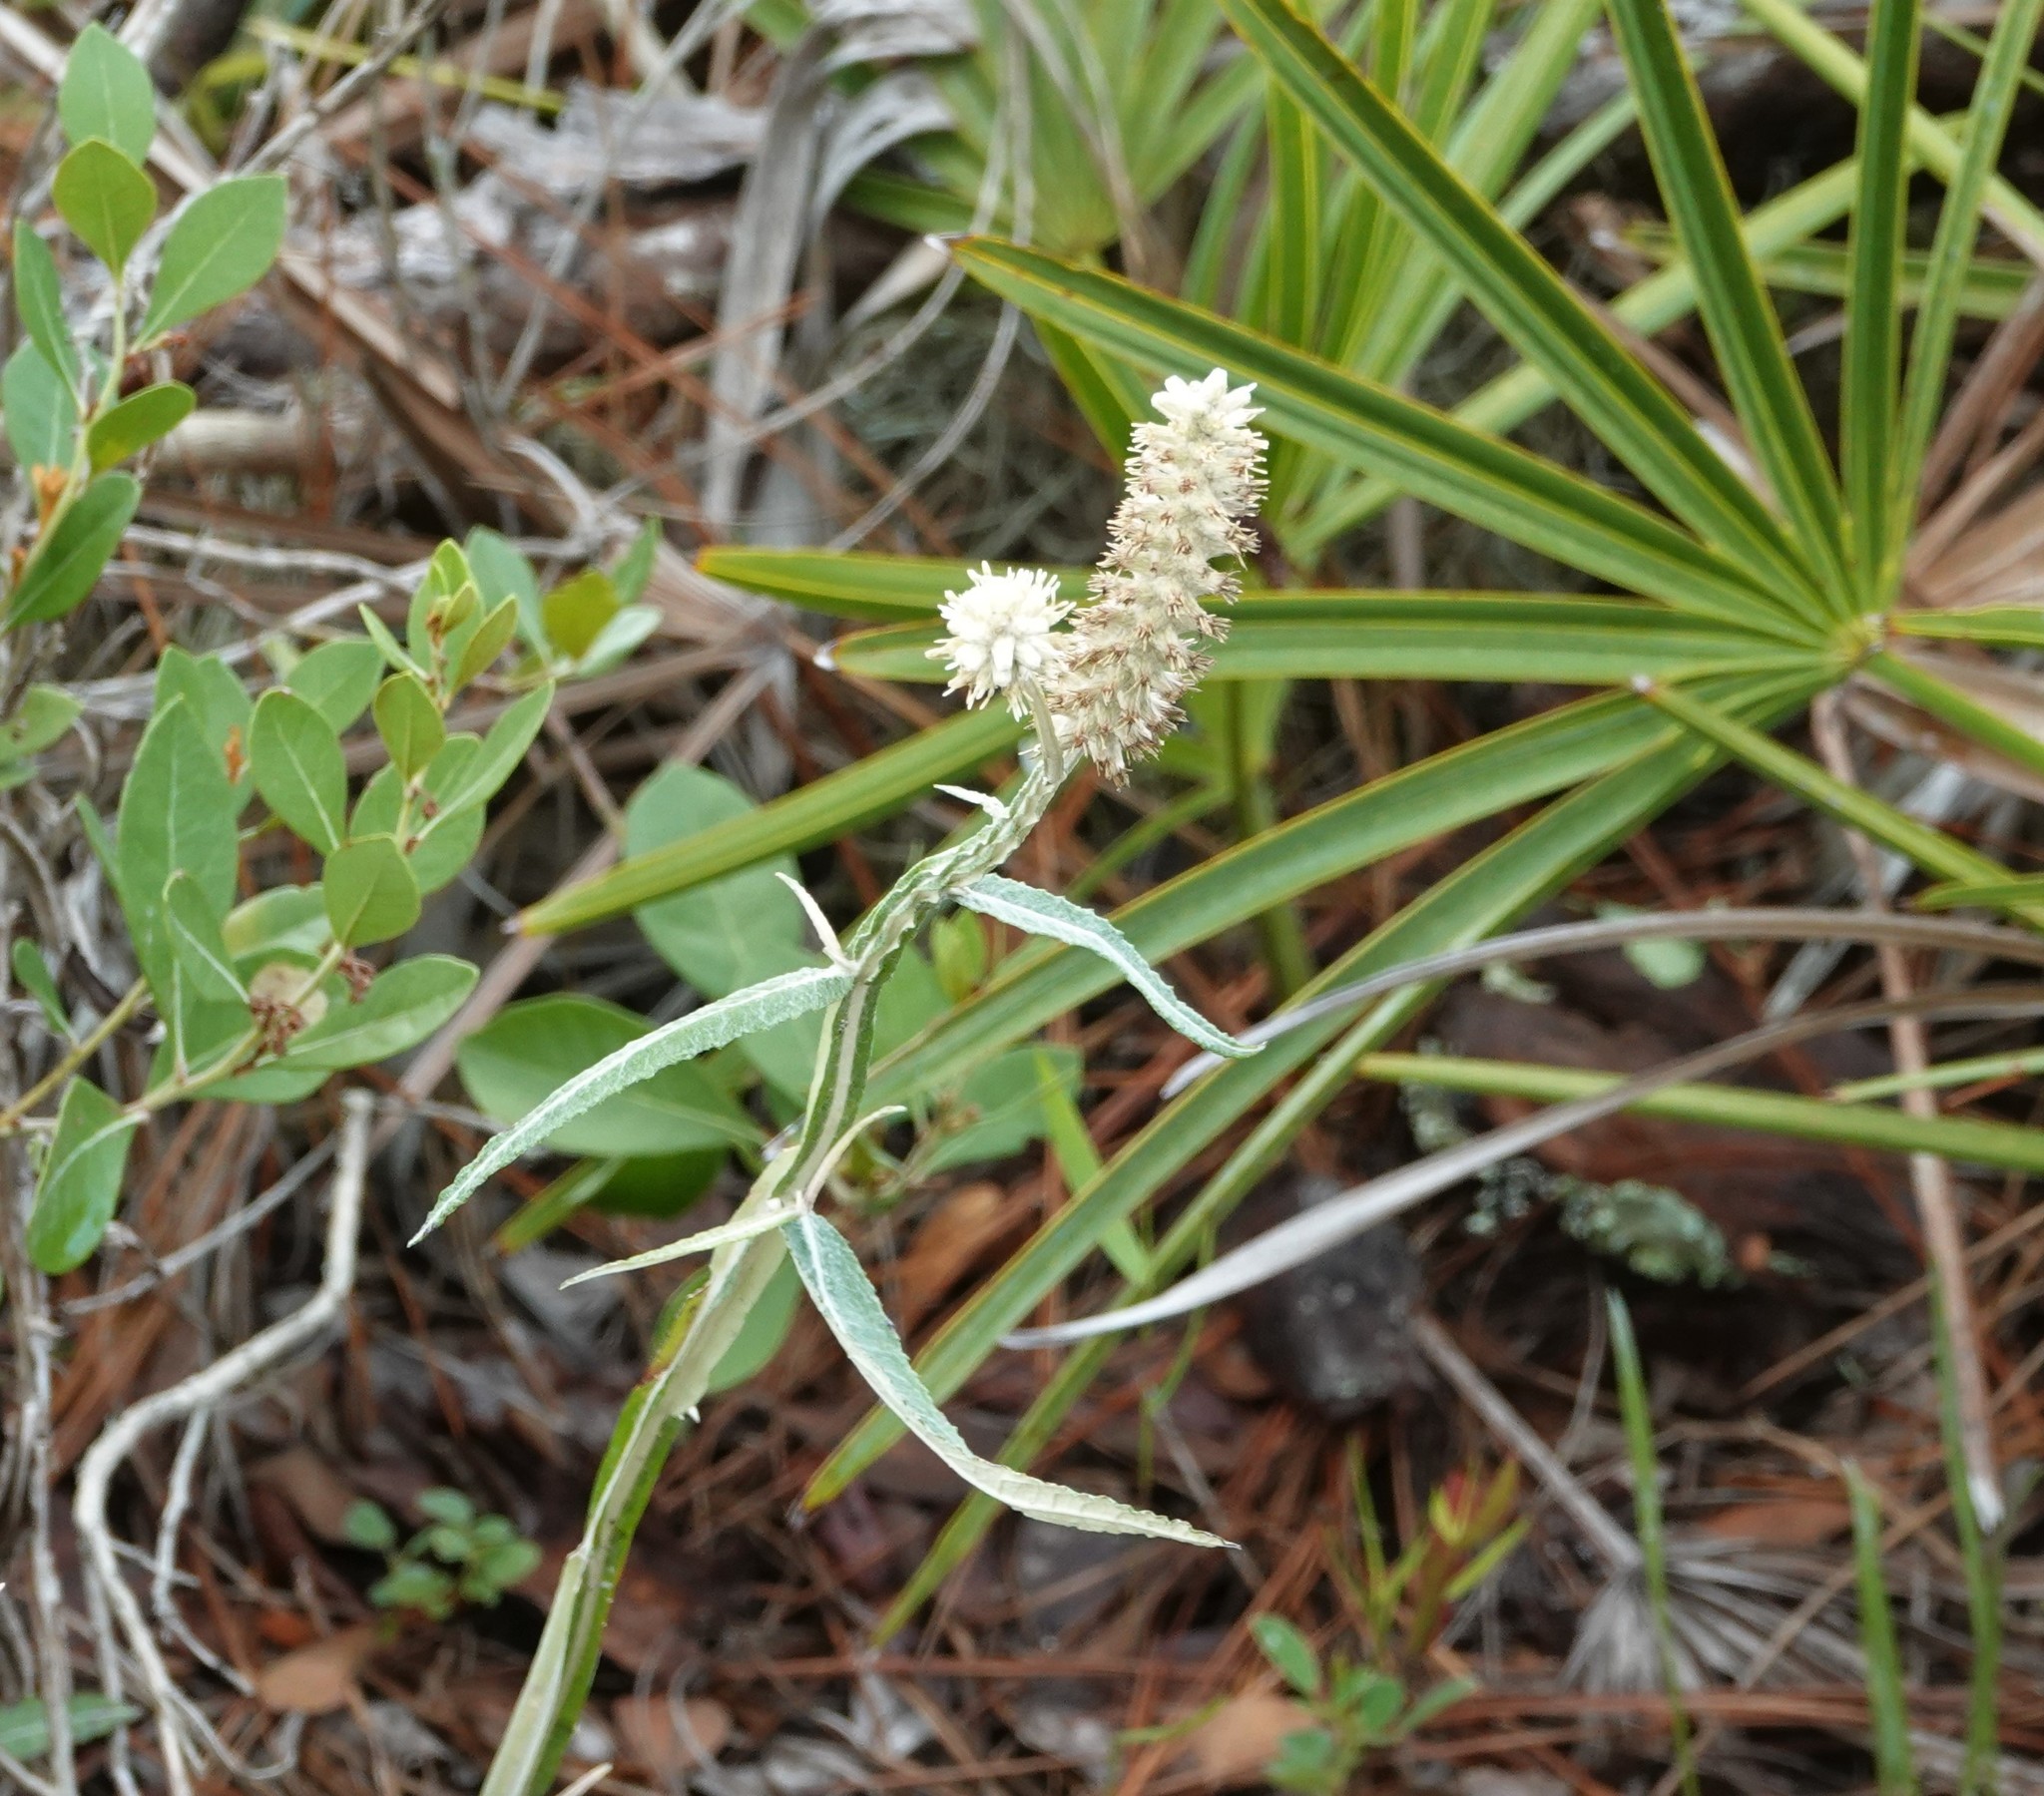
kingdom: Plantae
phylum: Tracheophyta
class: Magnoliopsida
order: Asterales
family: Asteraceae
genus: Pterocaulon
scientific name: Pterocaulon pycnostachyum
